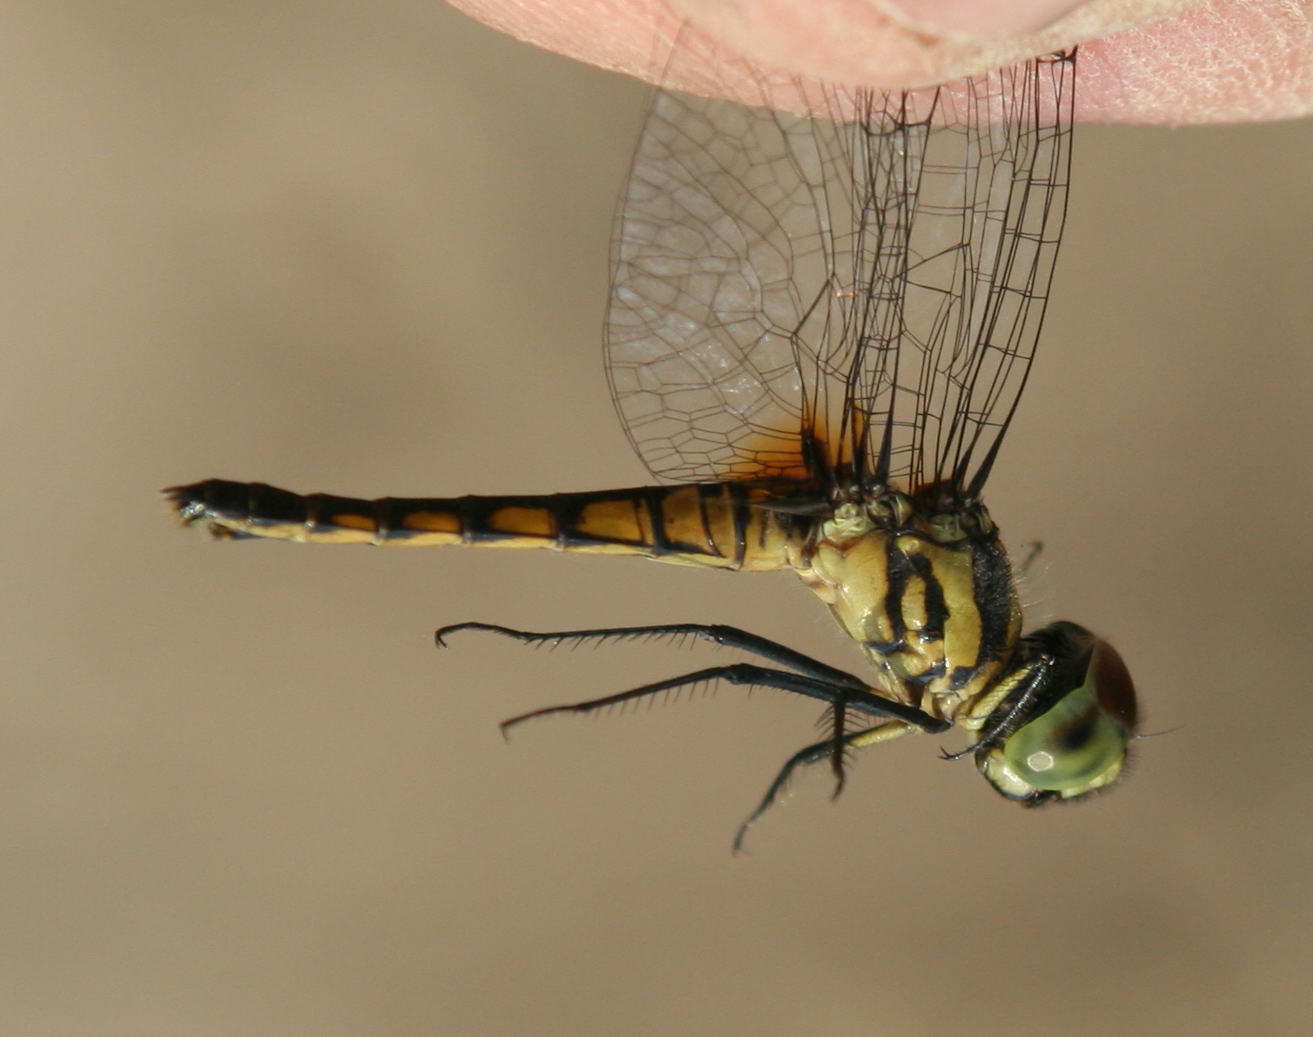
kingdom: Animalia
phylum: Arthropoda
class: Insecta
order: Odonata
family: Libellulidae
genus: Aethriamanta
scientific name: Aethriamanta aethra
